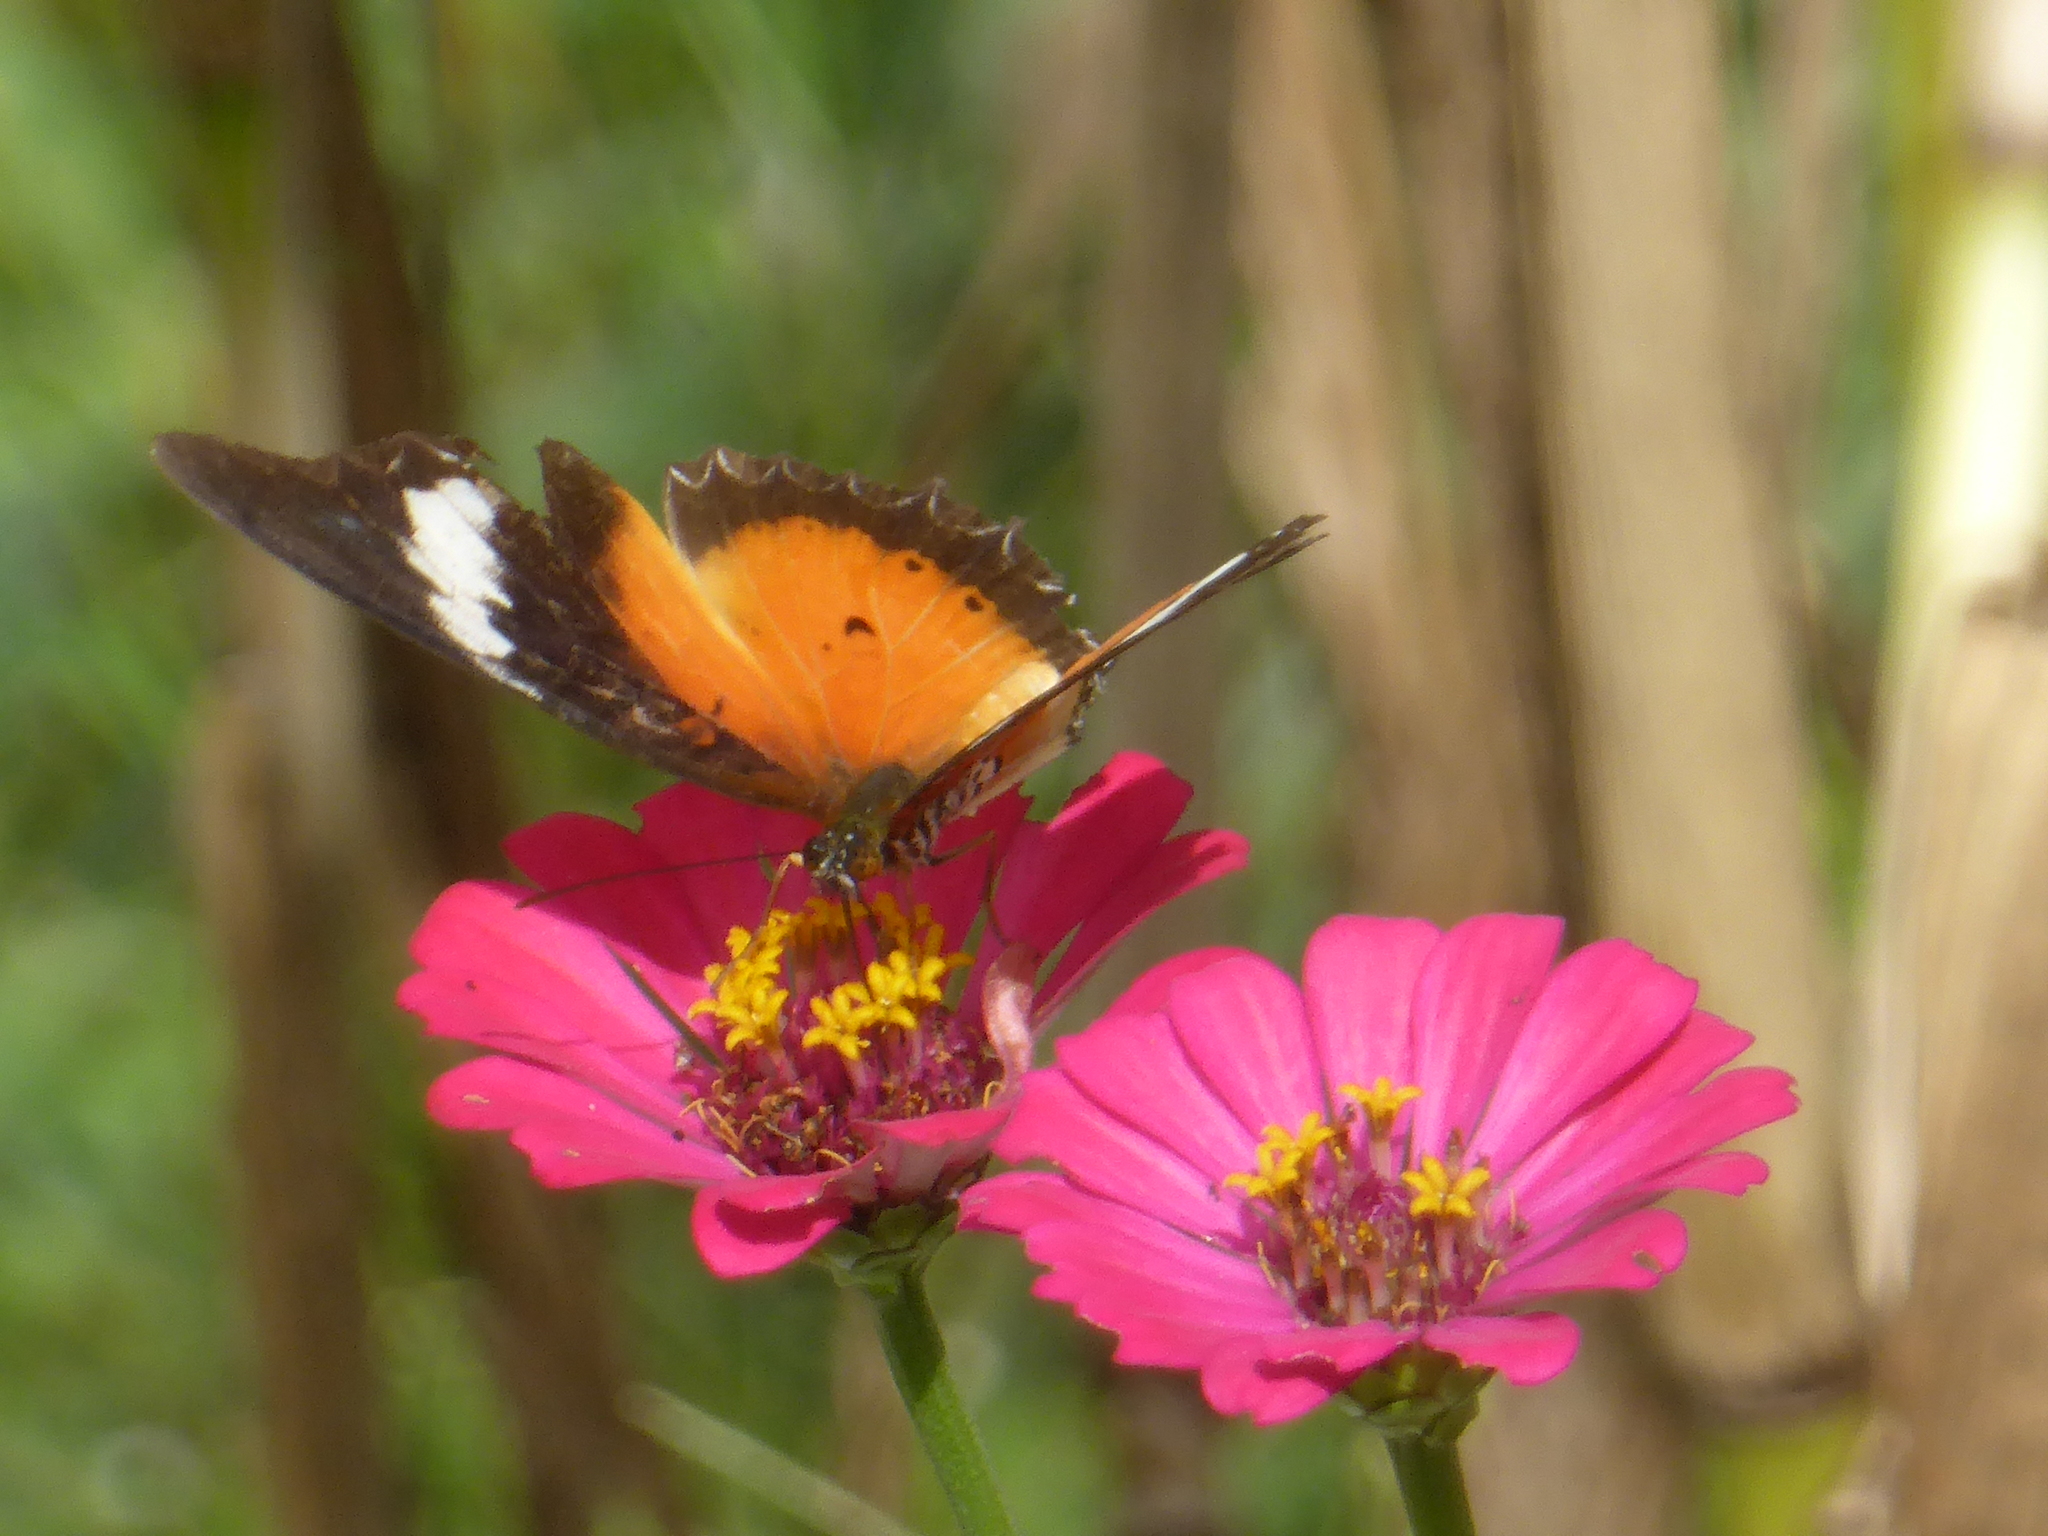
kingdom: Animalia
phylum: Arthropoda
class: Insecta
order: Lepidoptera
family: Nymphalidae
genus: Cethosia
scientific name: Cethosia hypsea
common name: Malayan lacewing butterfly
